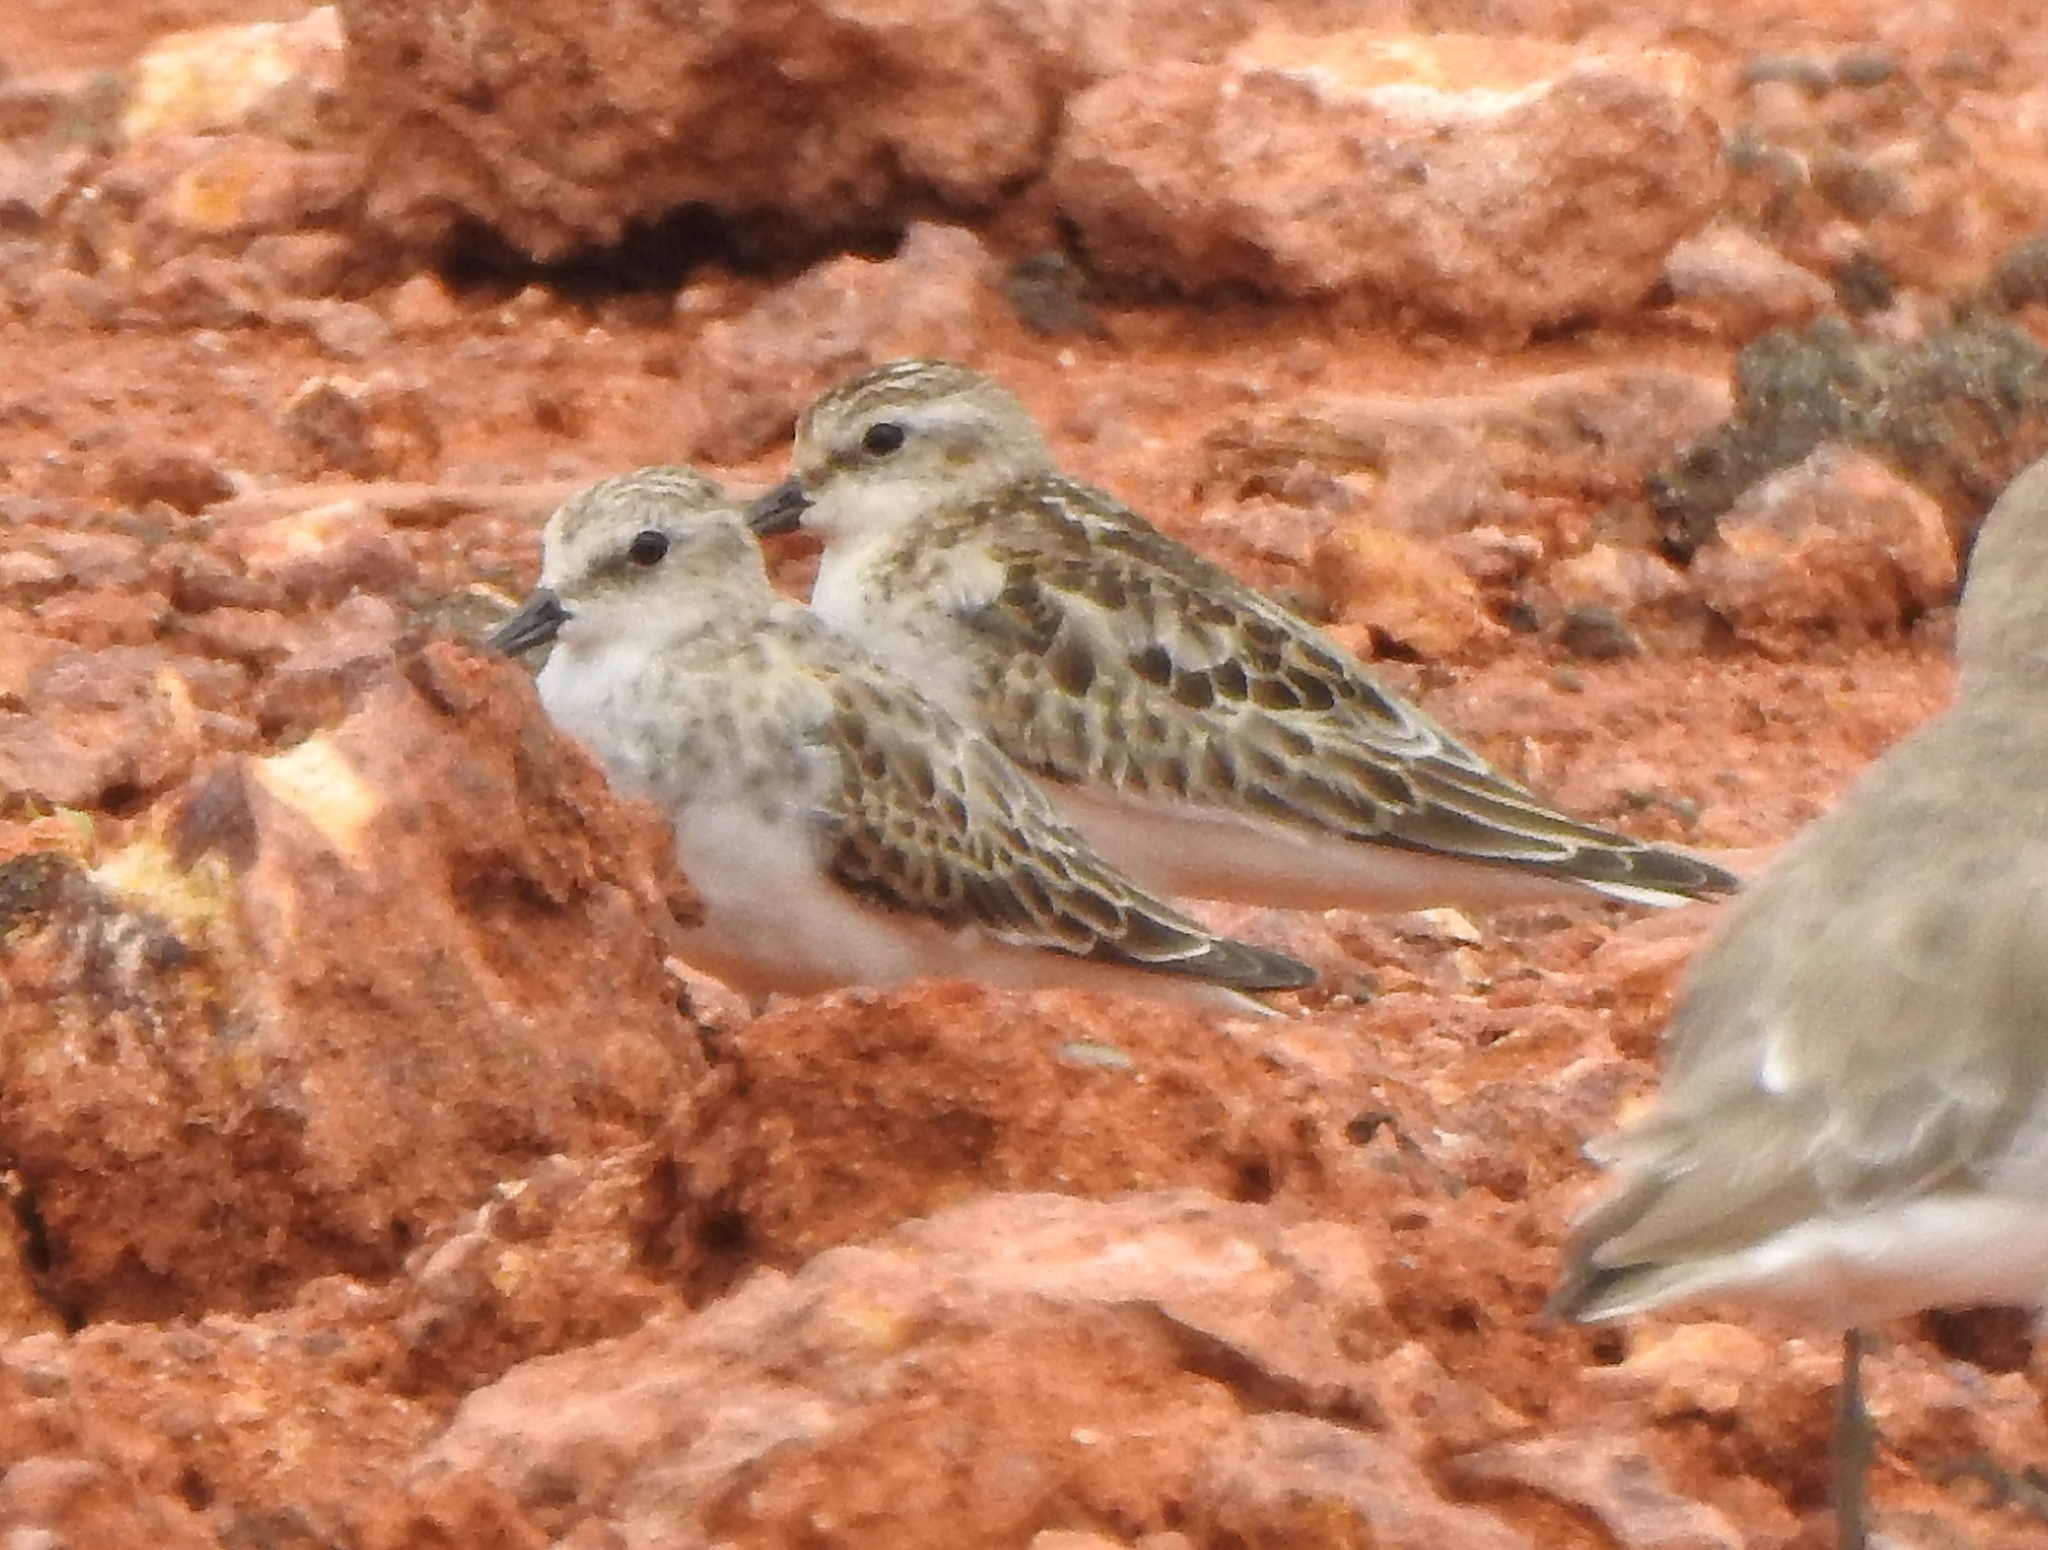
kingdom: Animalia
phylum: Chordata
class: Aves
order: Charadriiformes
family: Scolopacidae
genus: Calidris
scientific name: Calidris minuta
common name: Little stint
